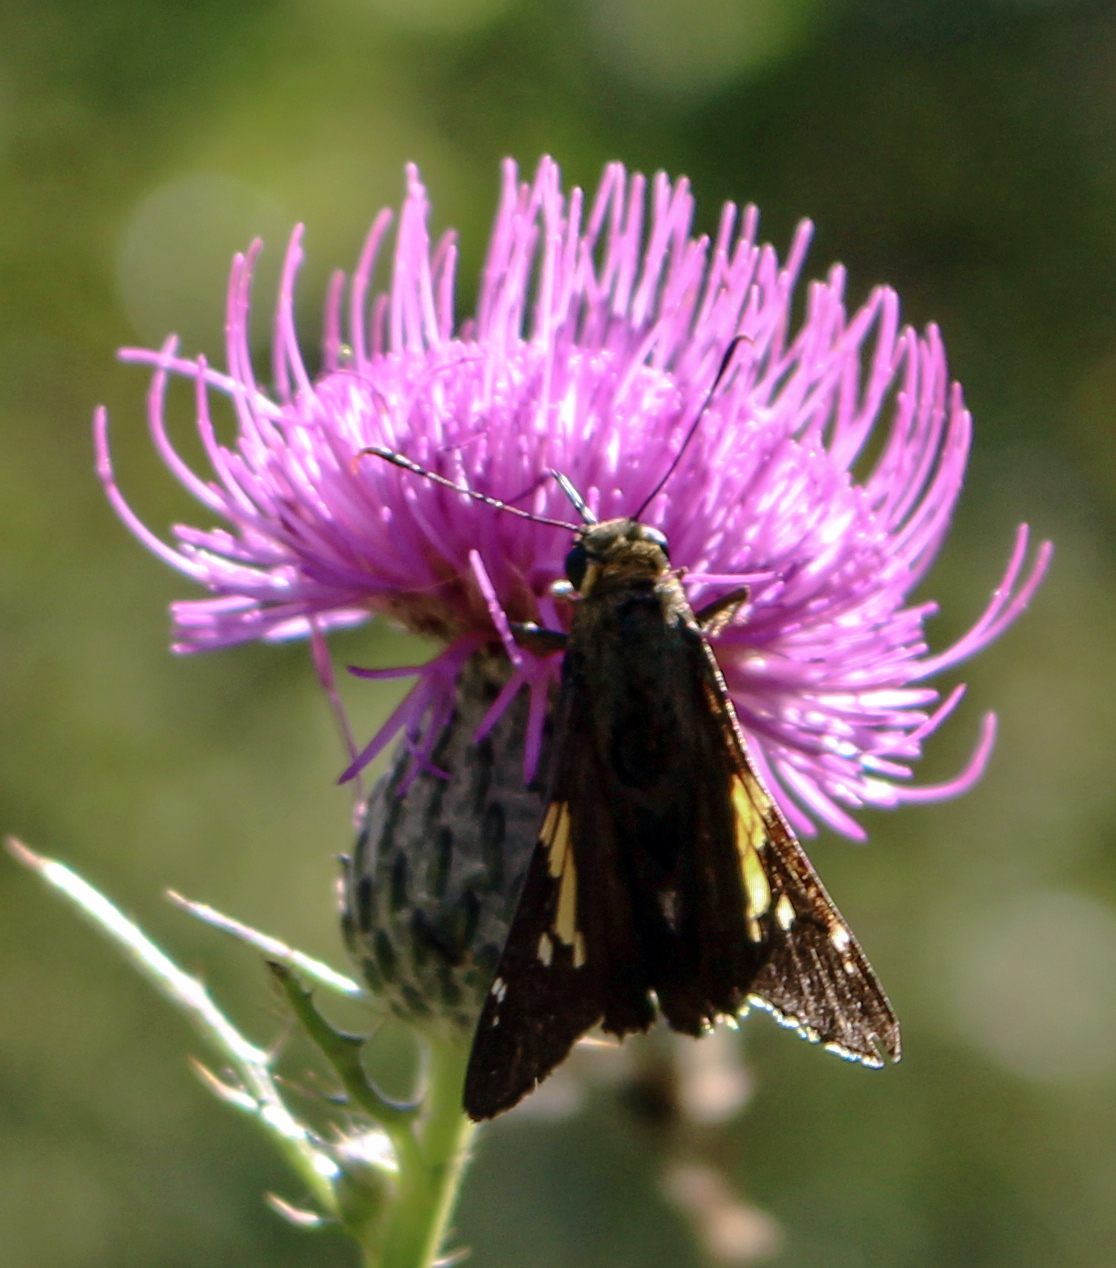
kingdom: Animalia
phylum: Arthropoda
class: Insecta
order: Lepidoptera
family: Hesperiidae
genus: Epargyreus
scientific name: Epargyreus clarus
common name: Silver-spotted skipper
